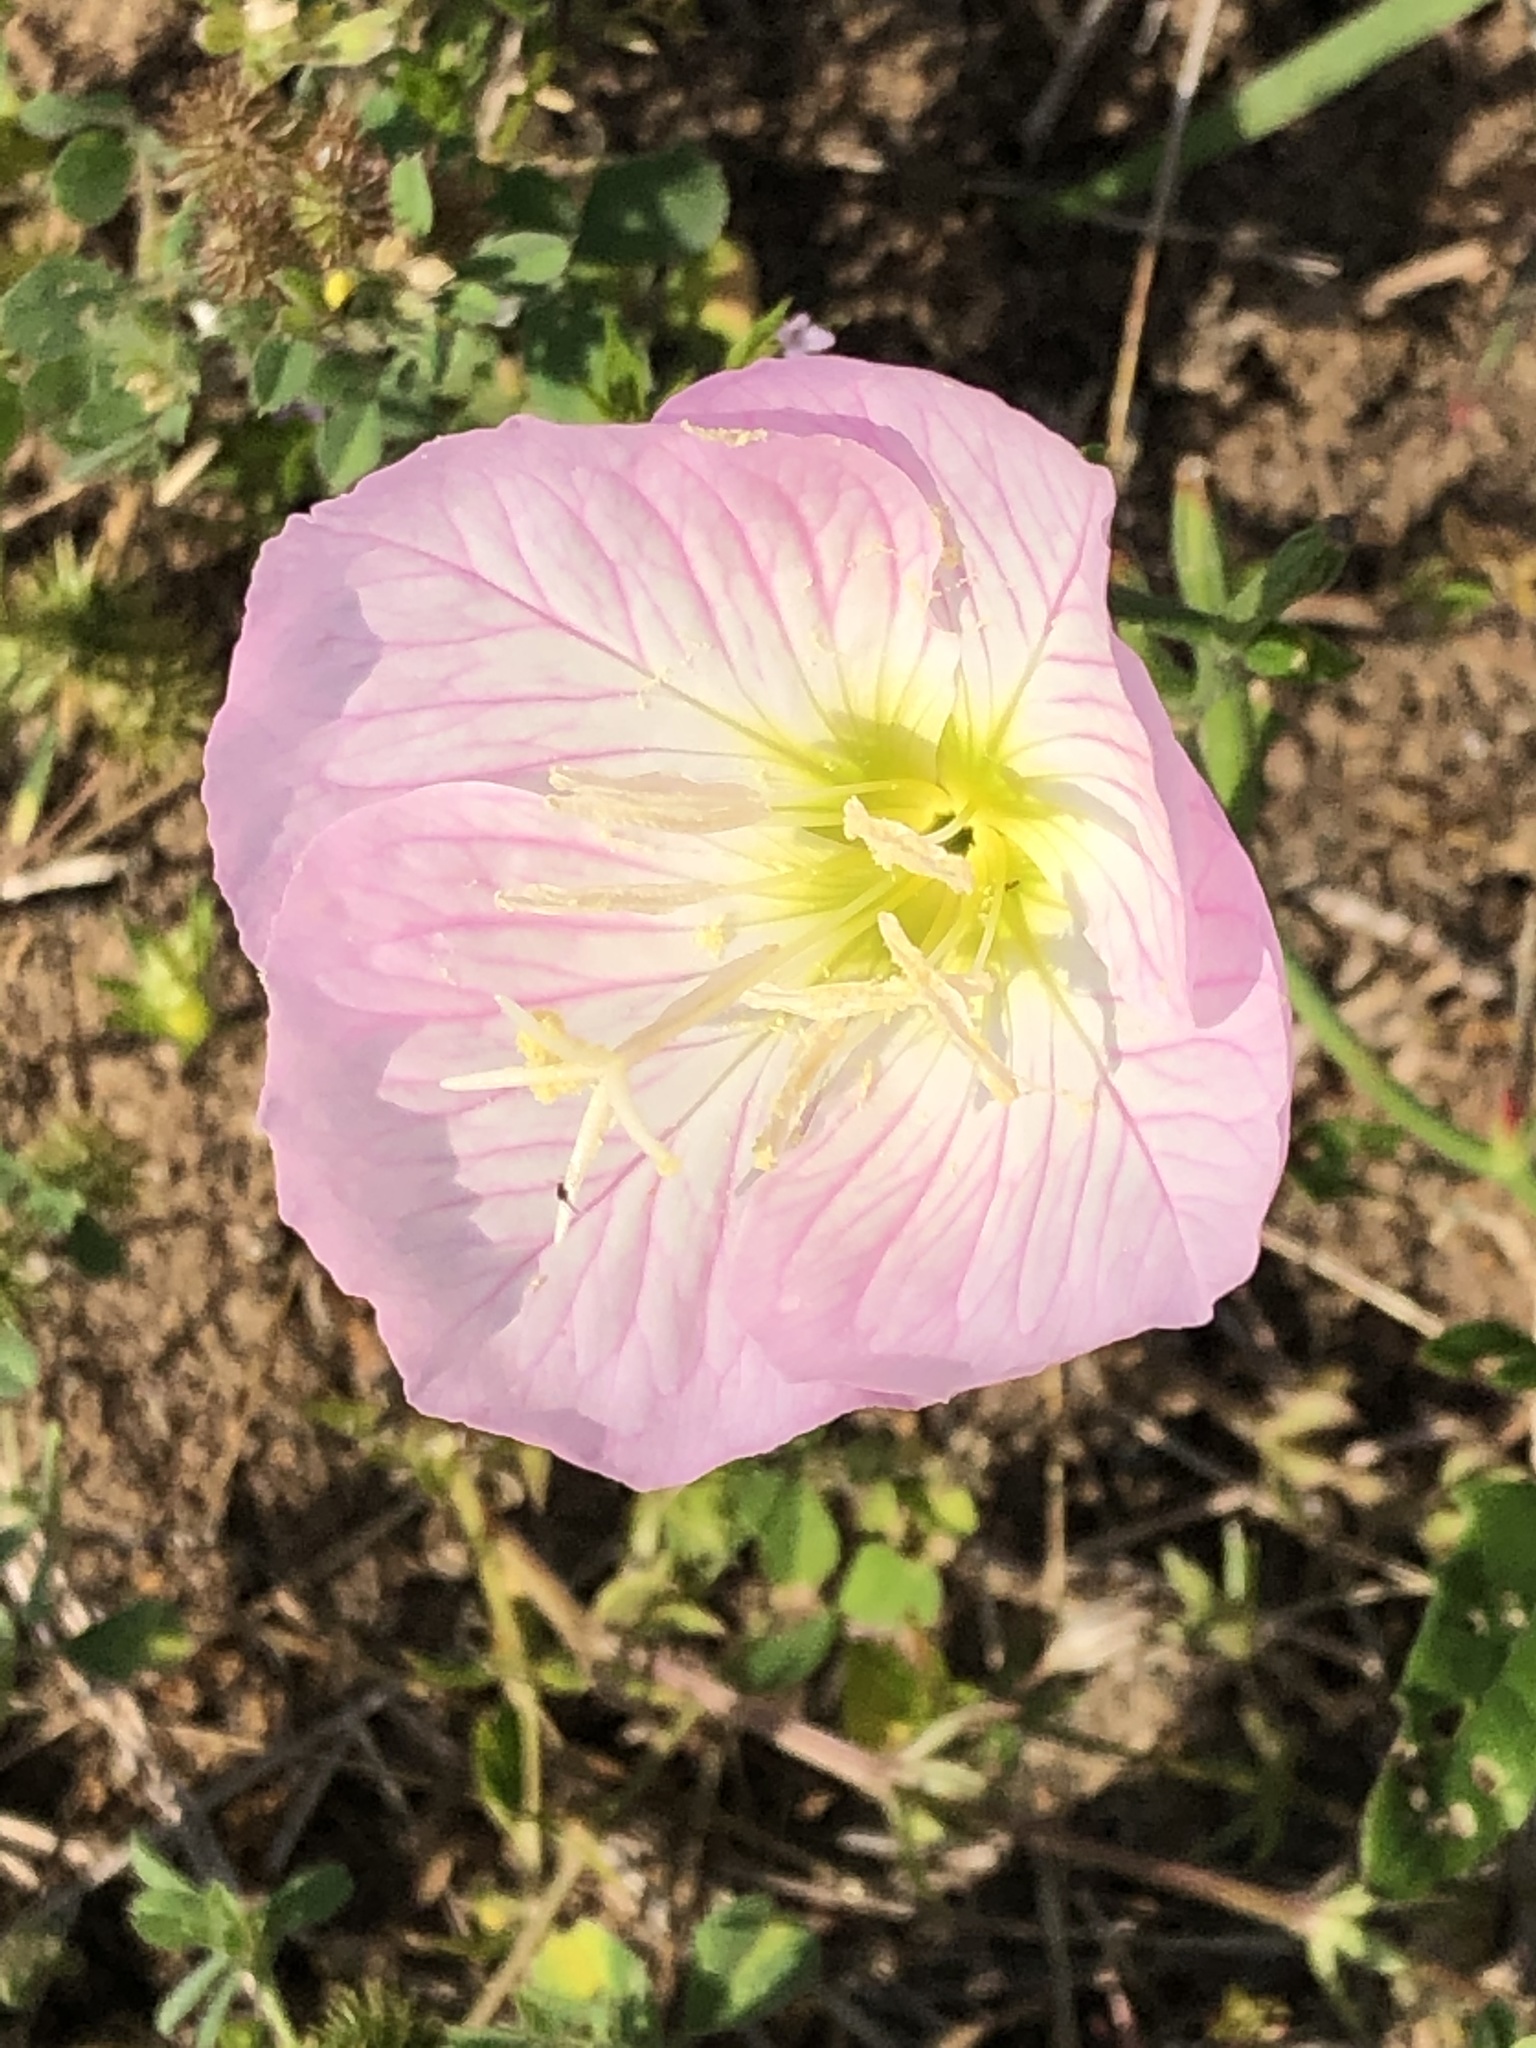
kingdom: Plantae
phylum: Tracheophyta
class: Magnoliopsida
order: Myrtales
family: Onagraceae
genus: Oenothera
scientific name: Oenothera speciosa
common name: White evening-primrose
